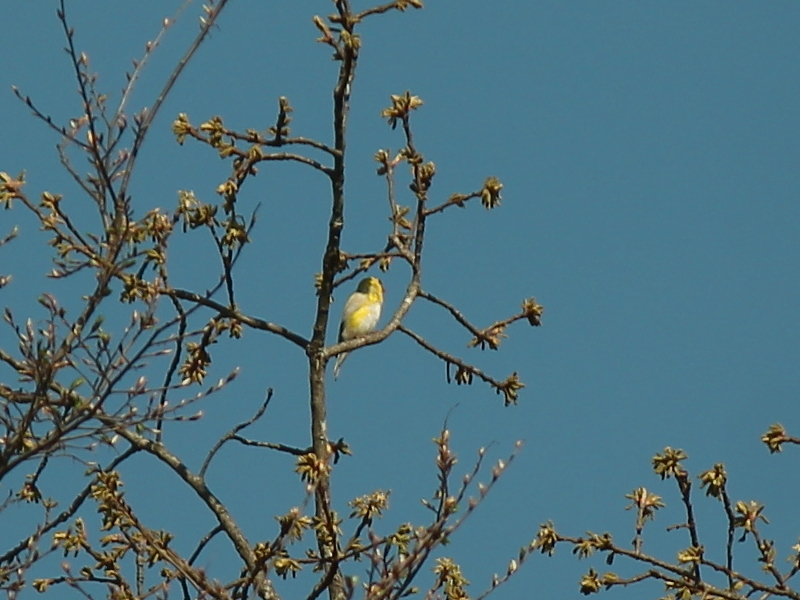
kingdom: Animalia
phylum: Chordata
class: Aves
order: Passeriformes
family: Fringillidae
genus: Spinus
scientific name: Spinus tristis
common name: American goldfinch
